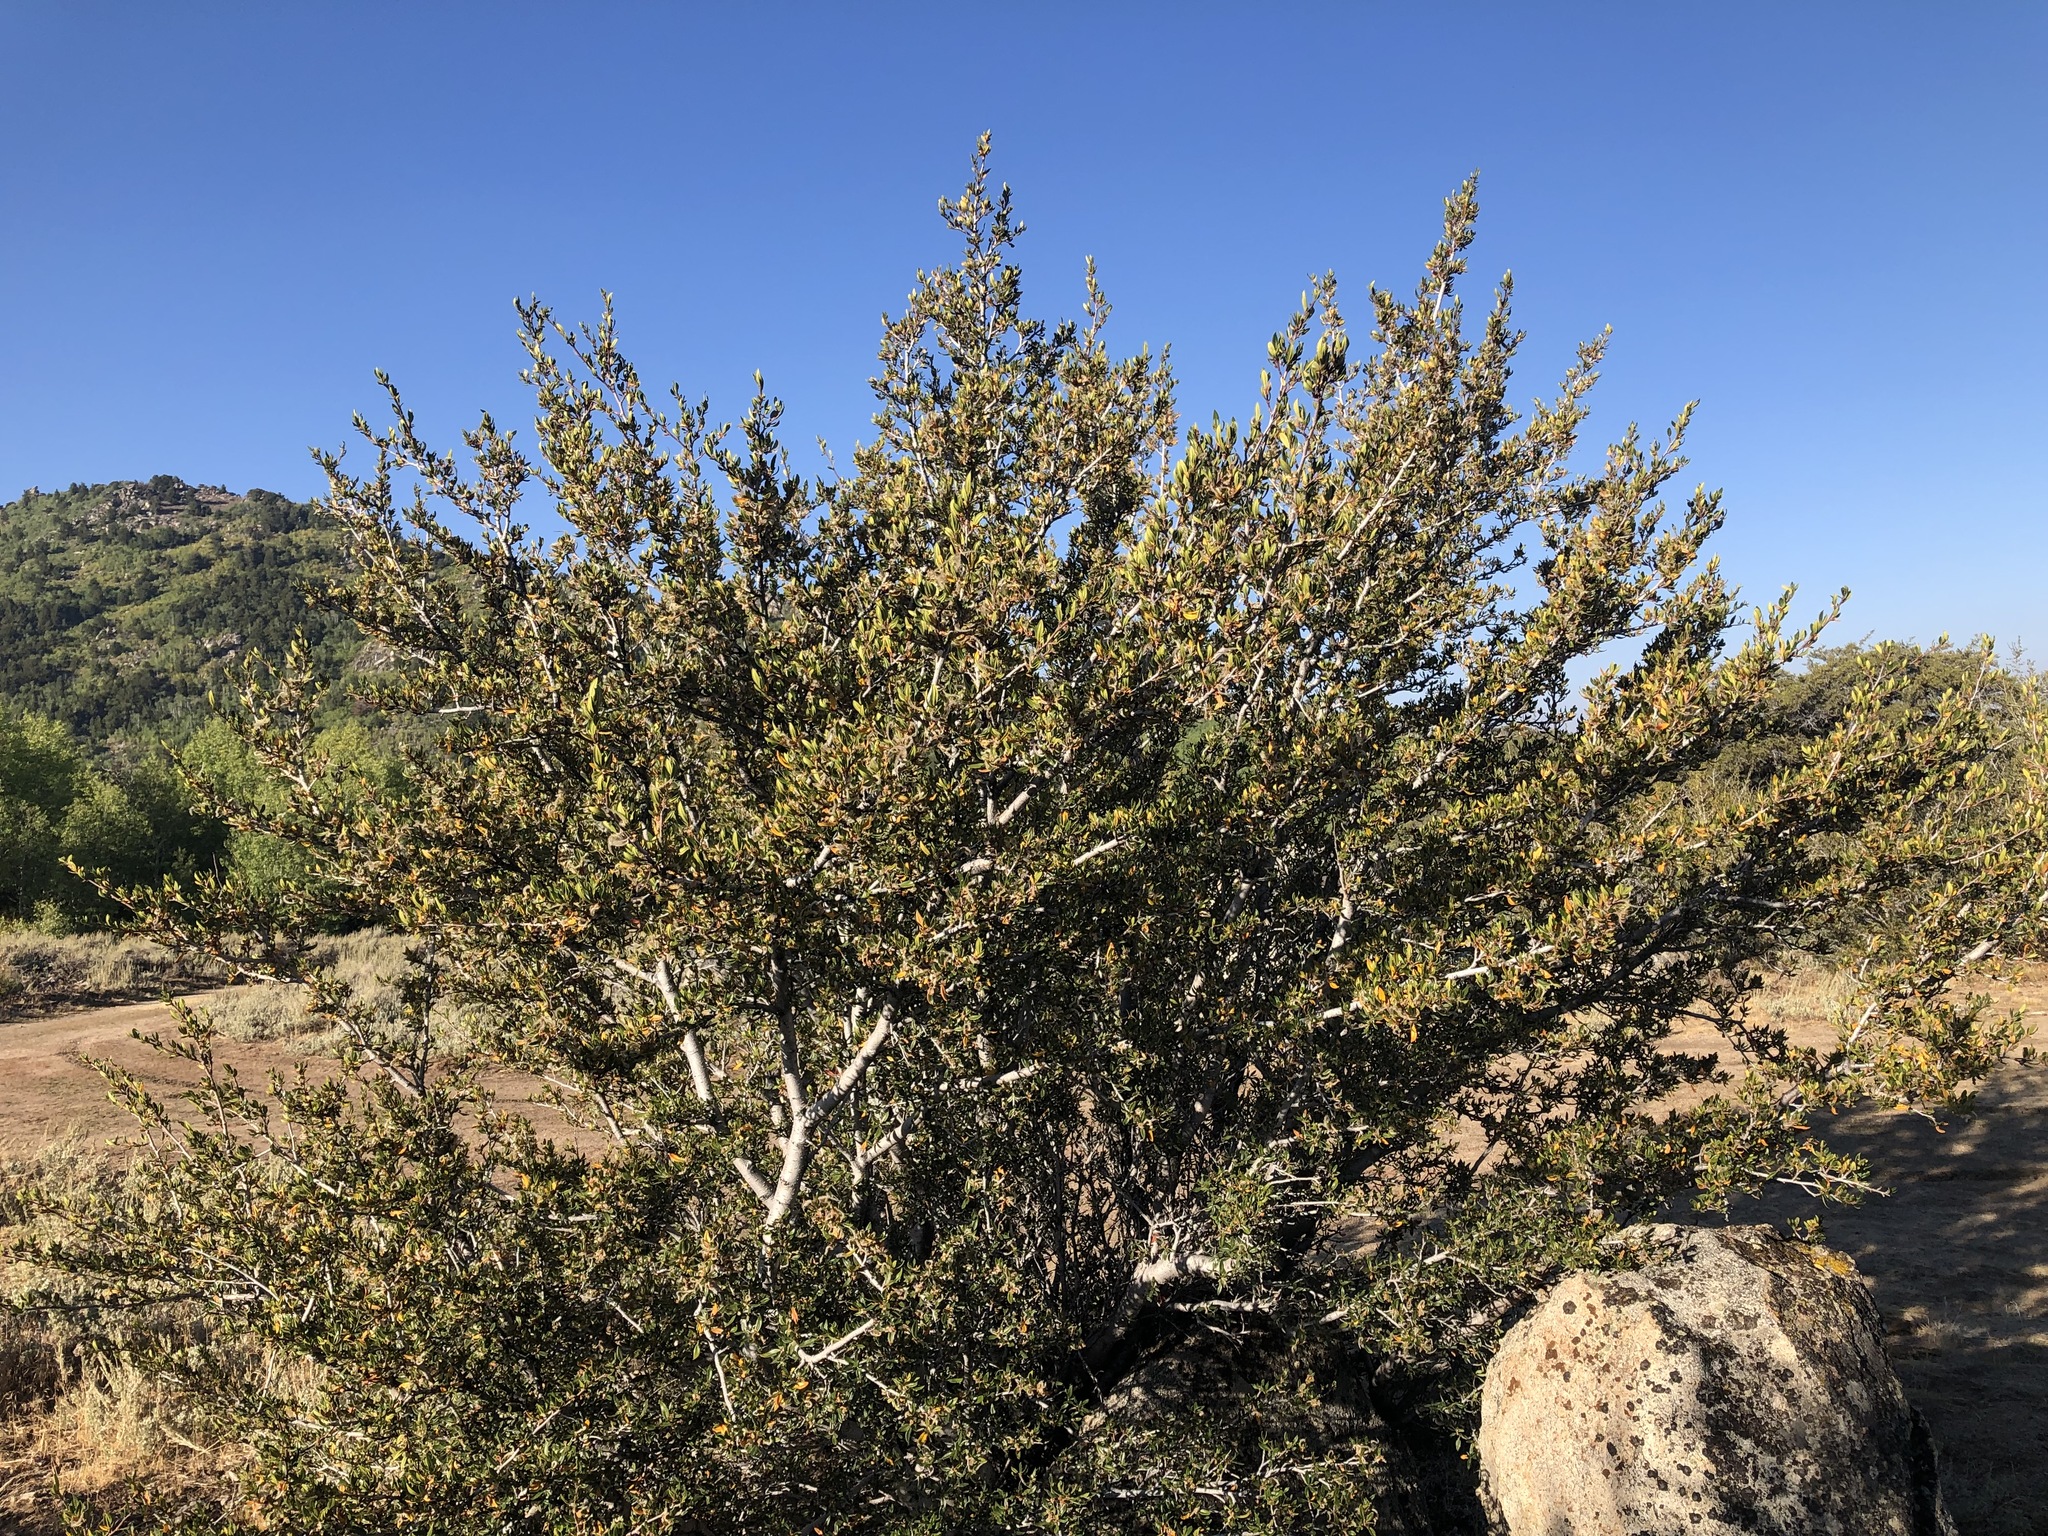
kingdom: Plantae
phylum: Tracheophyta
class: Magnoliopsida
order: Rosales
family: Rosaceae
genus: Cercocarpus
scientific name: Cercocarpus ledifolius
